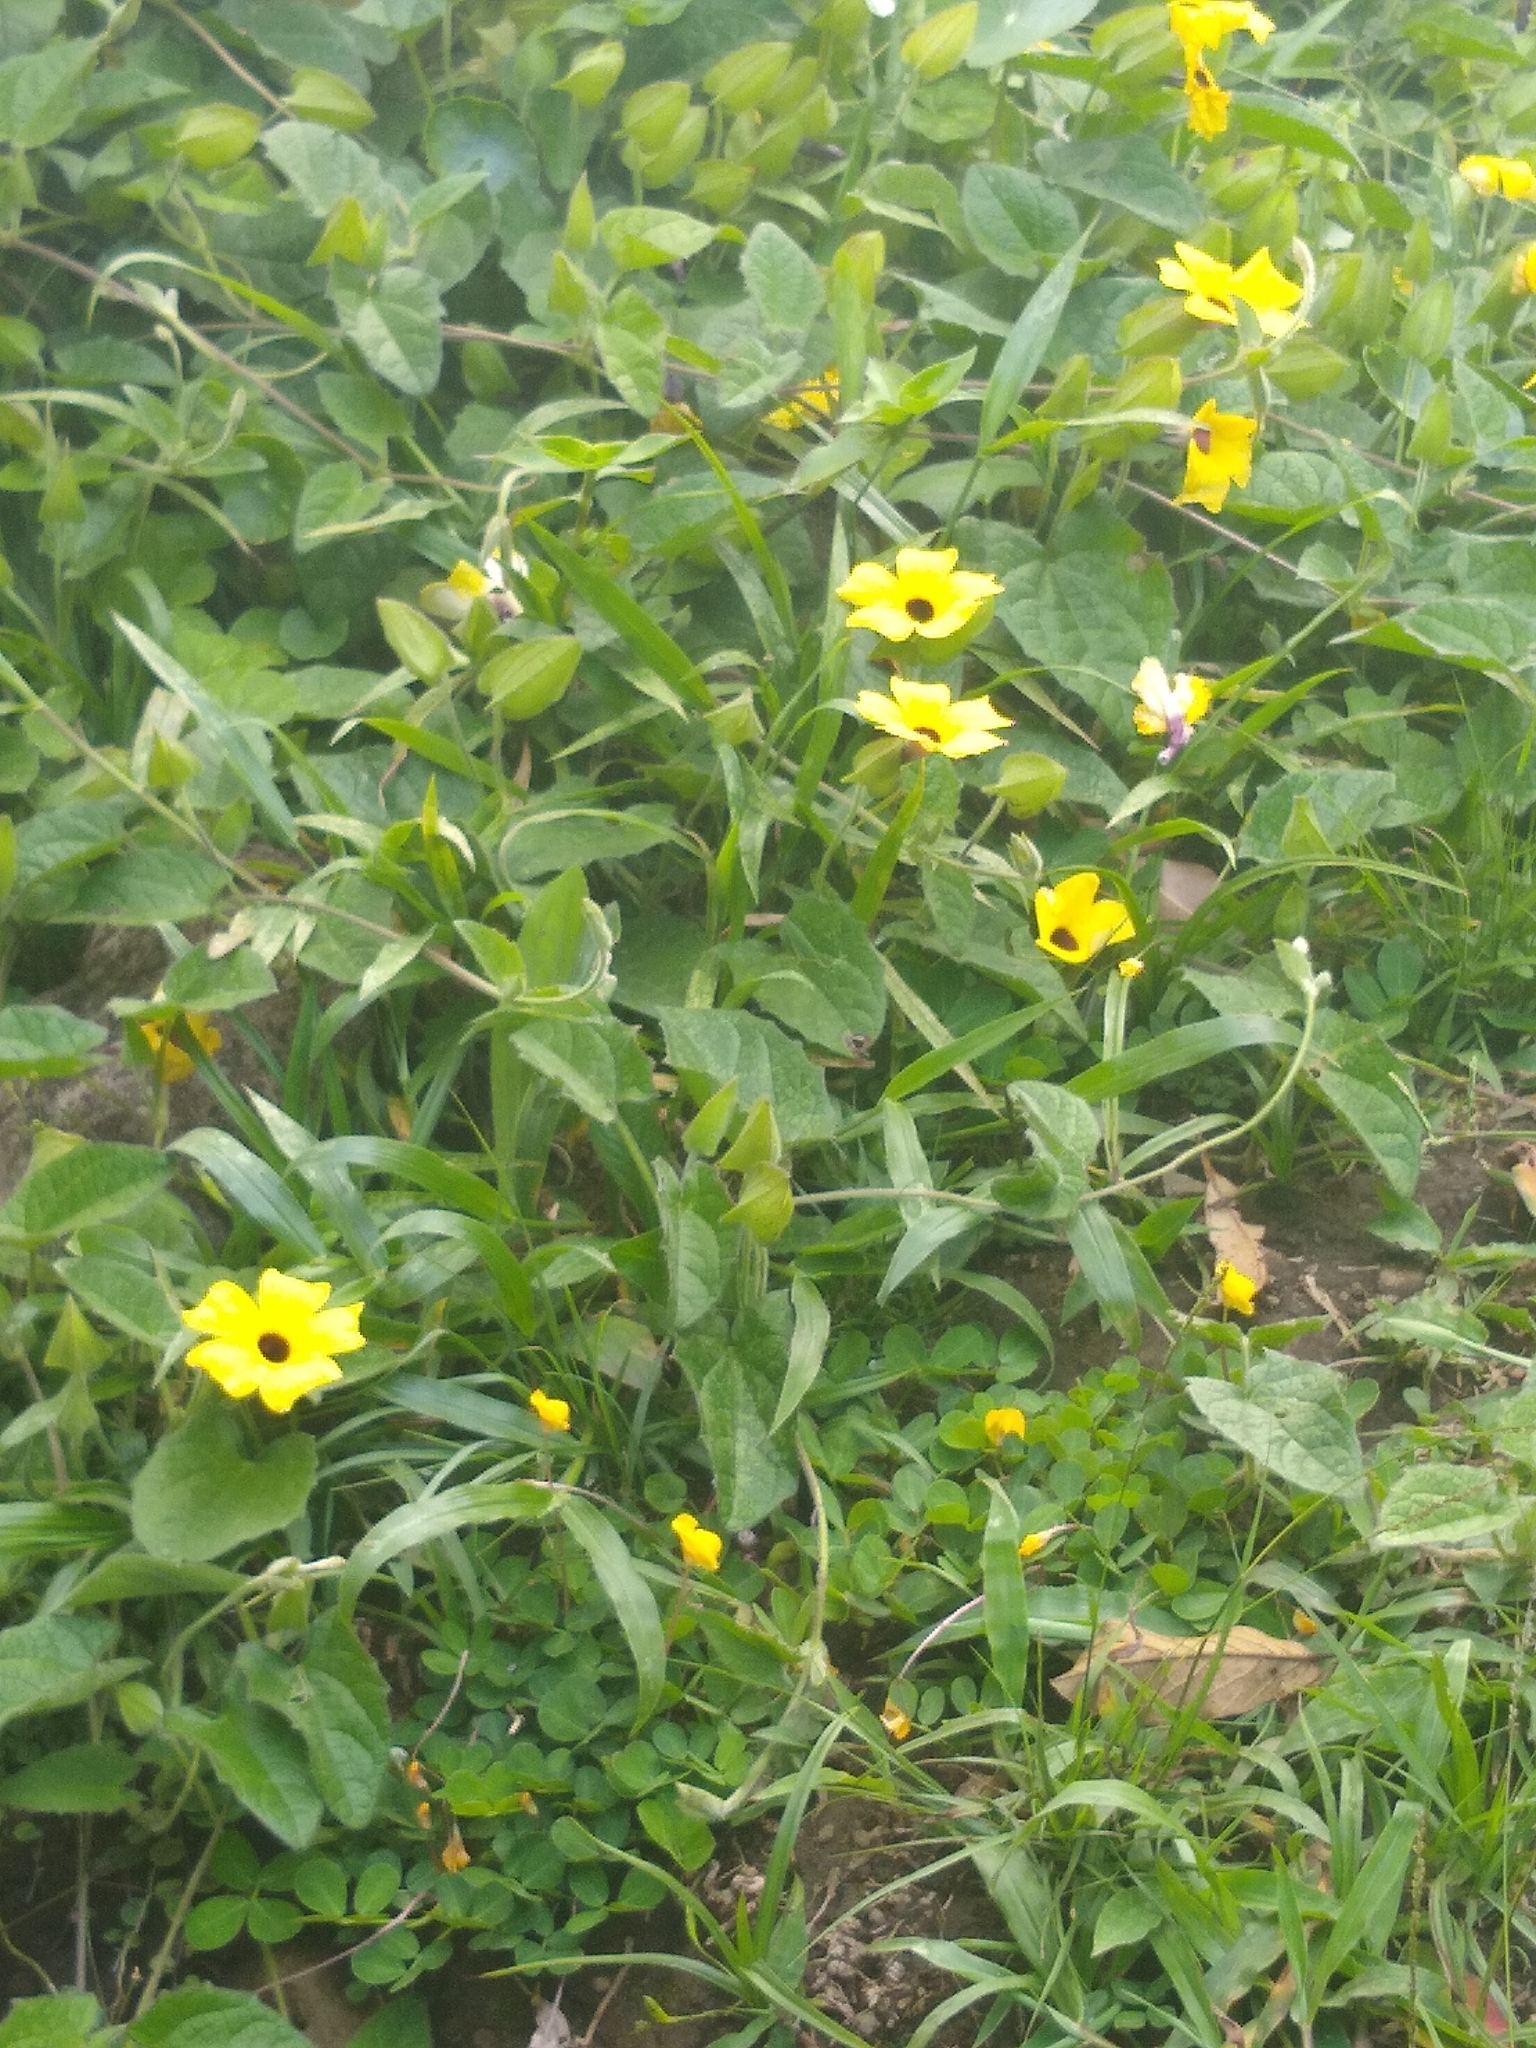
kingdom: Plantae
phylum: Tracheophyta
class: Magnoliopsida
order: Lamiales
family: Acanthaceae
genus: Thunbergia
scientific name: Thunbergia alata
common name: Blackeyed susan vine
